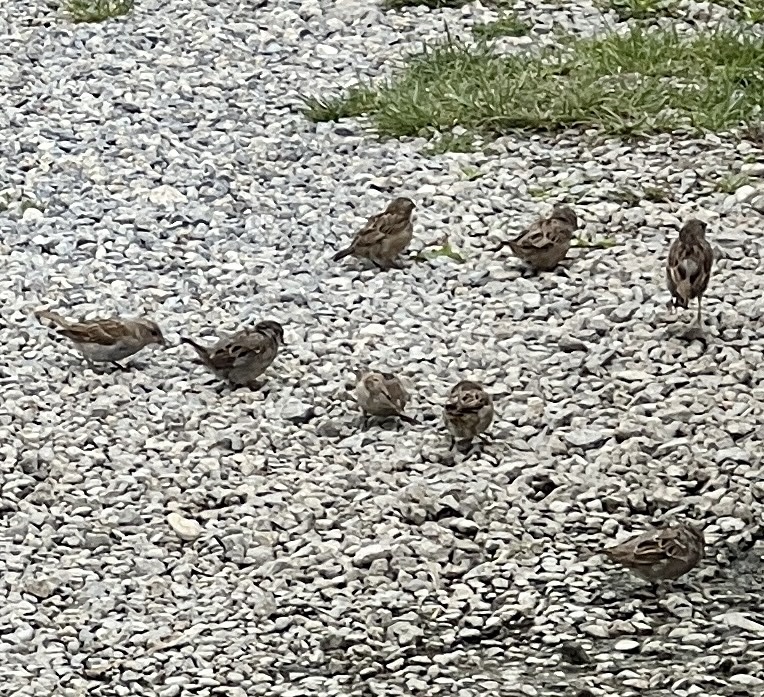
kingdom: Animalia
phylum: Chordata
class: Aves
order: Passeriformes
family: Passeridae
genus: Passer
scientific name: Passer domesticus
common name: House sparrow
